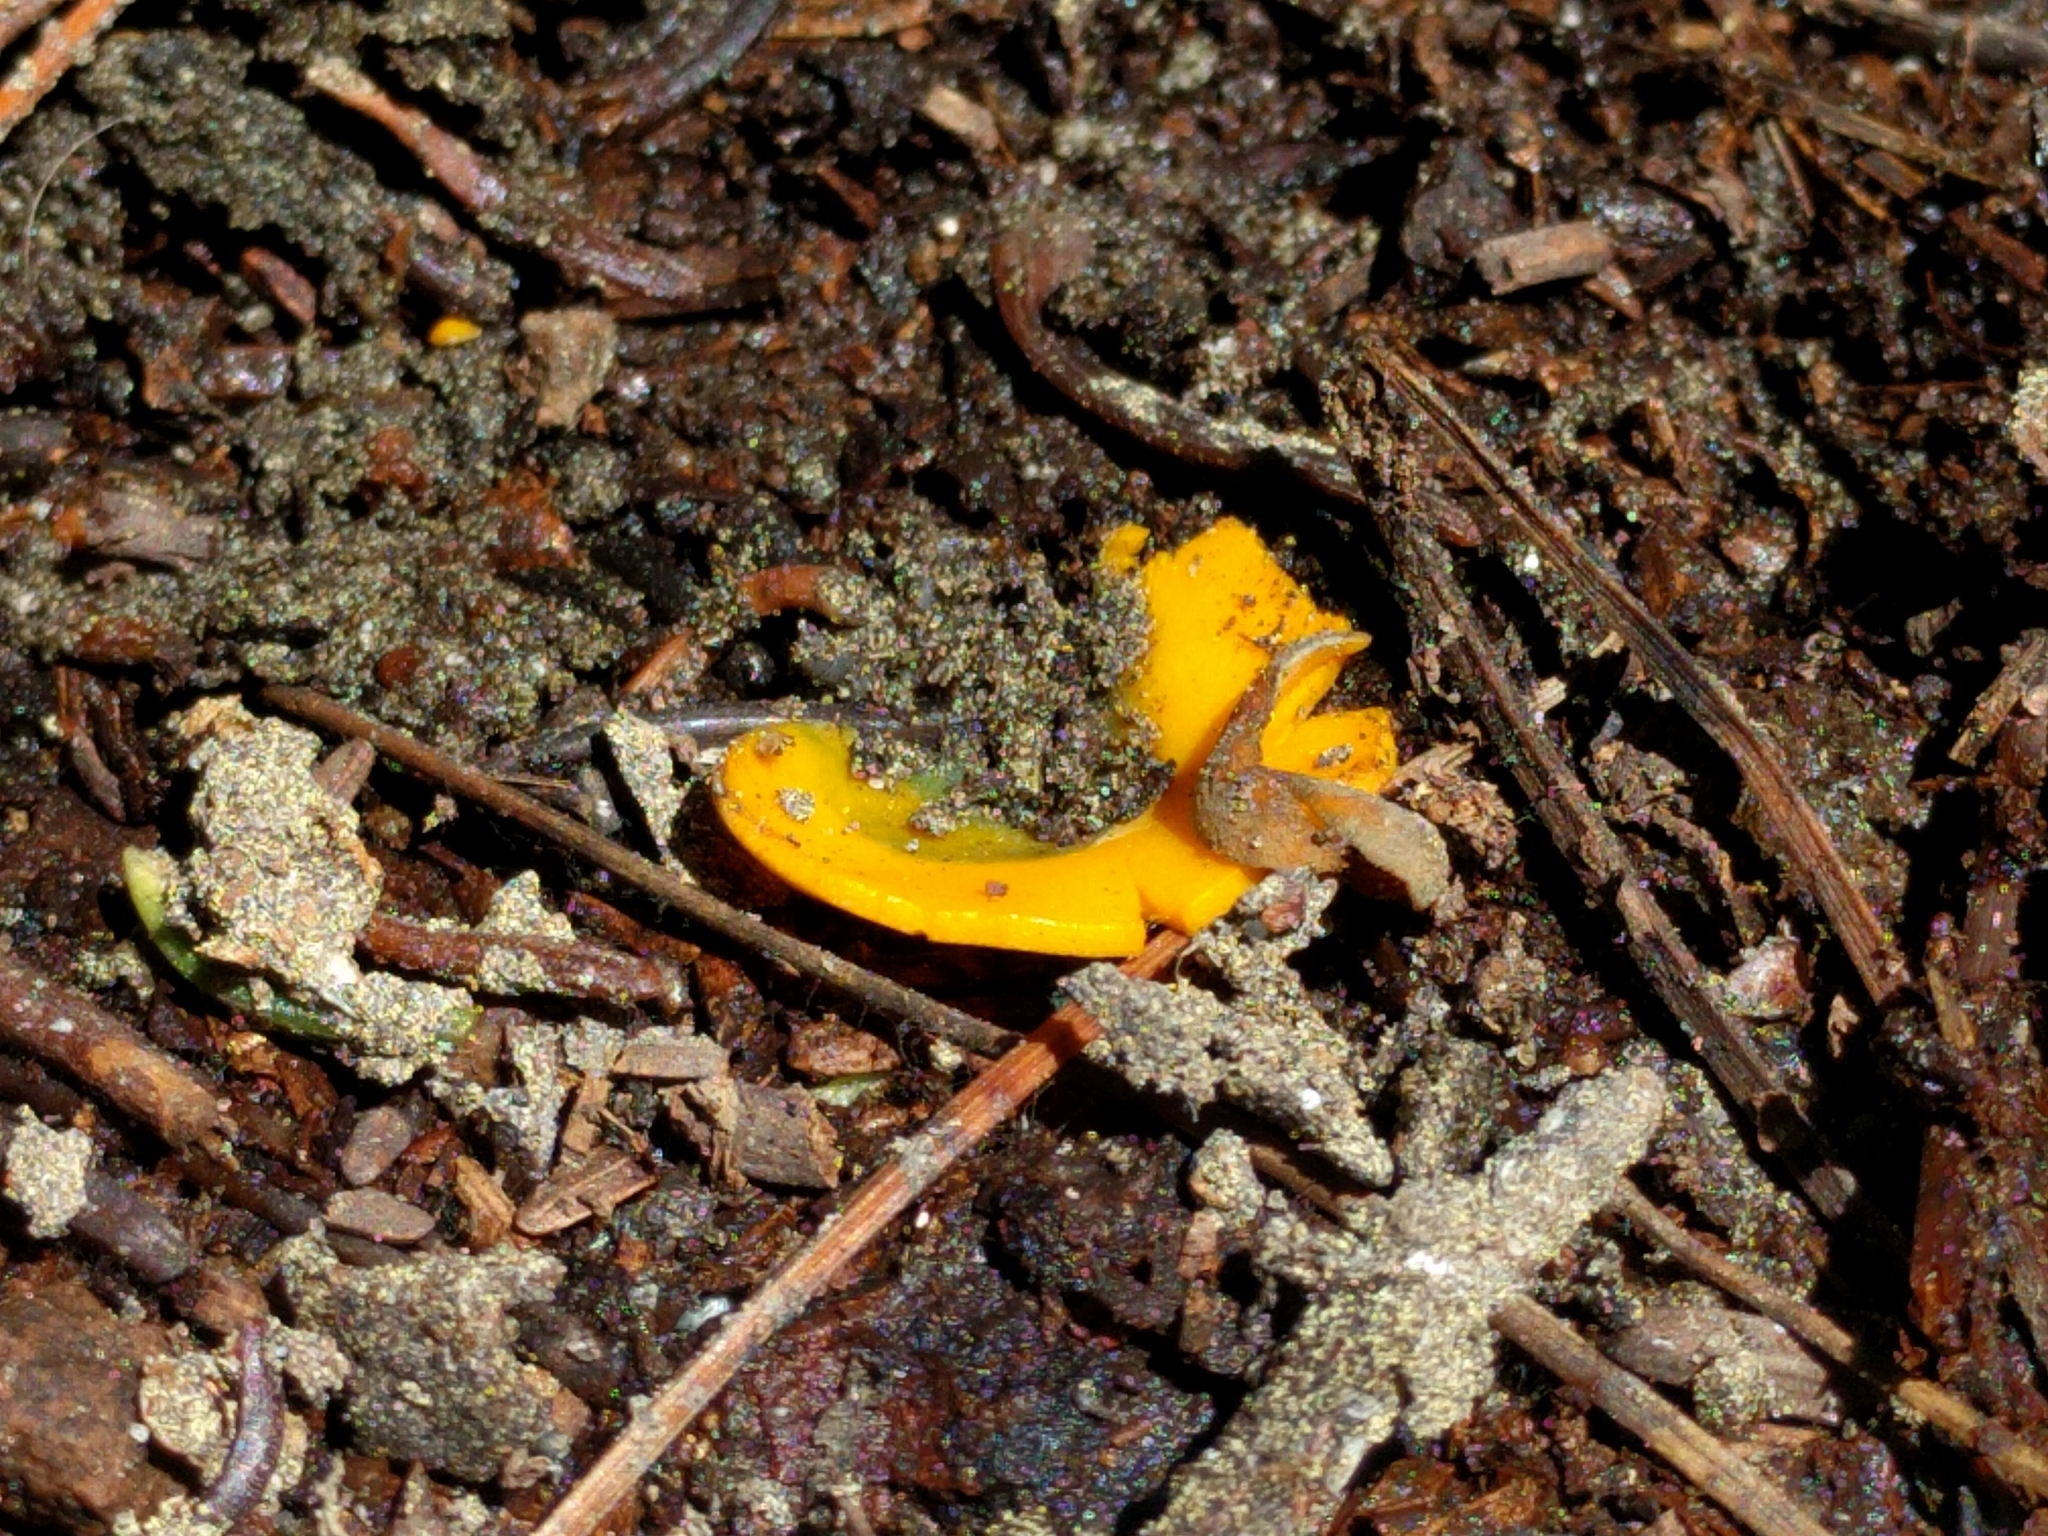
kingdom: Fungi
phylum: Ascomycota
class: Pezizomycetes
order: Pezizales
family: Caloscyphaceae
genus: Caloscypha
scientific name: Caloscypha fulgens
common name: Golden cup
